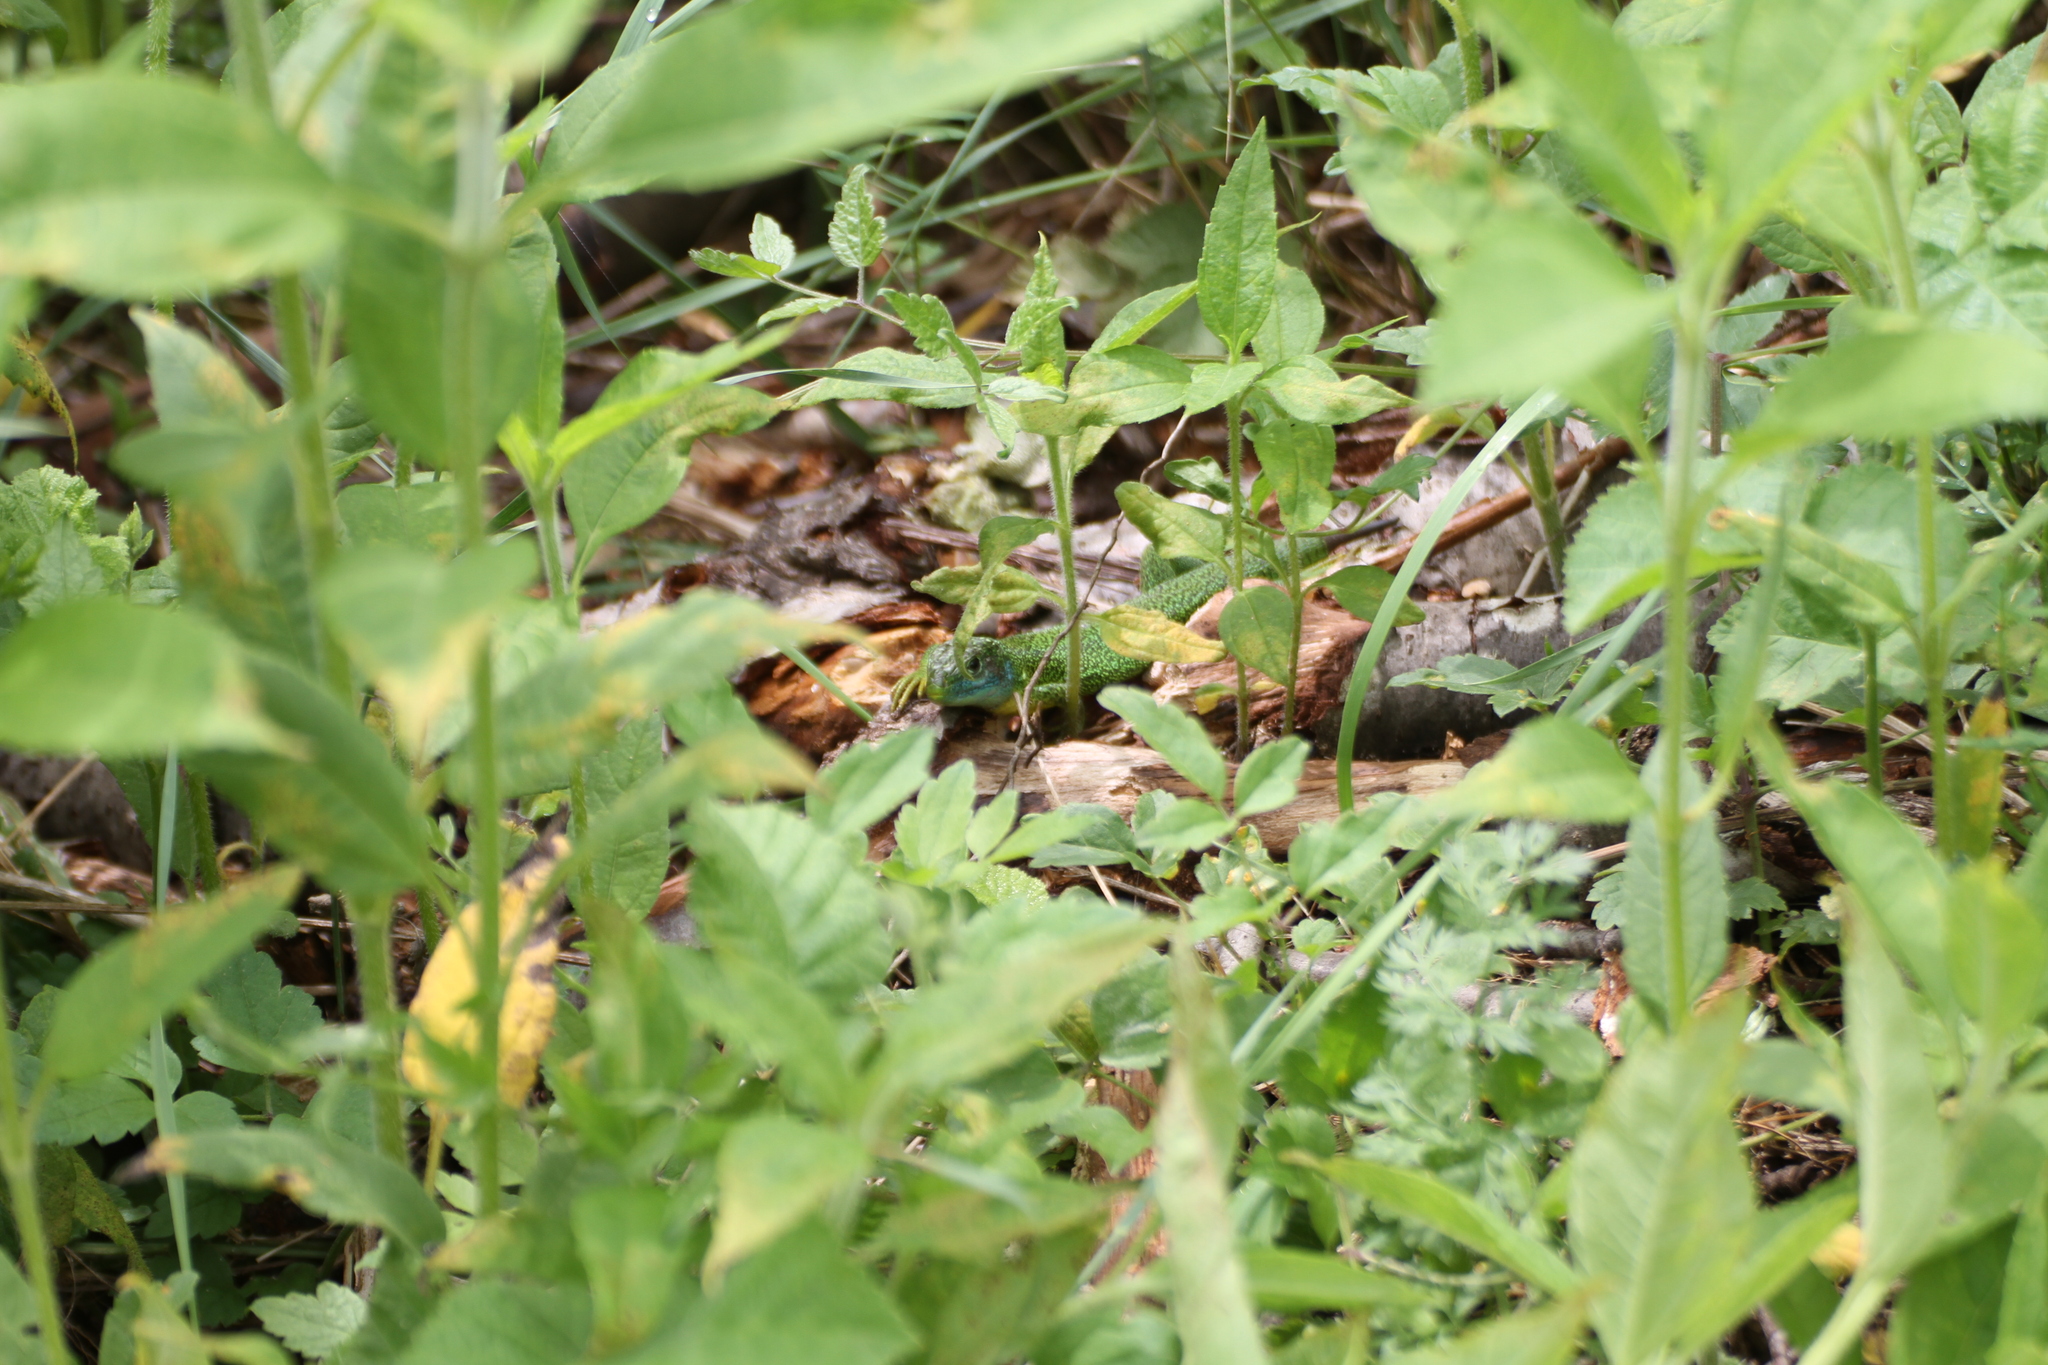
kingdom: Animalia
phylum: Chordata
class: Squamata
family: Lacertidae
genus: Lacerta
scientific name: Lacerta bilineata
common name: Western green lizard
